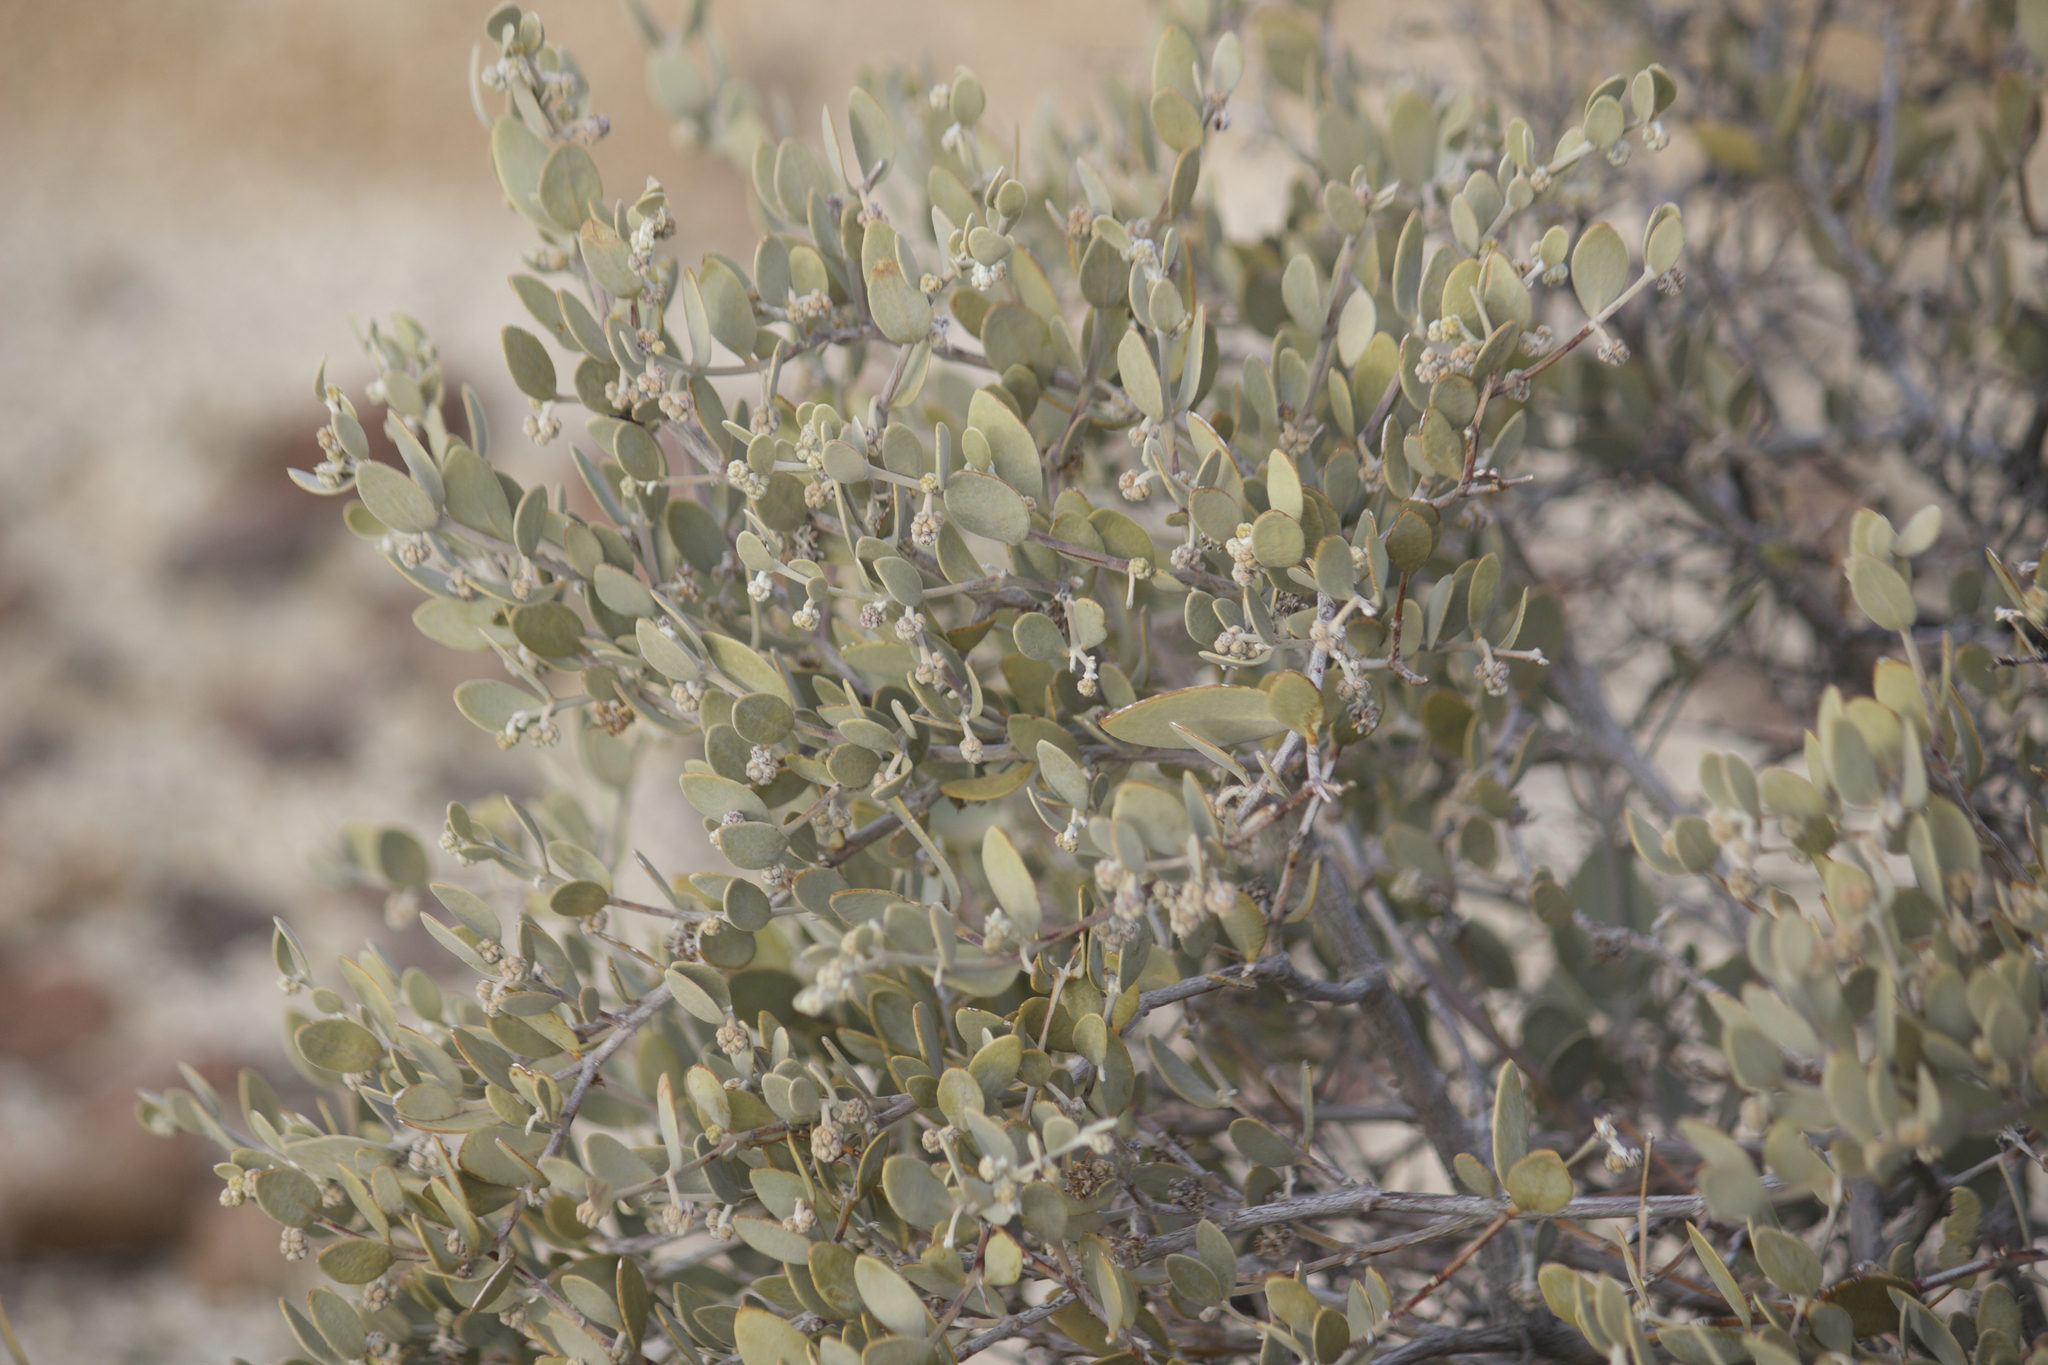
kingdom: Plantae
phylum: Tracheophyta
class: Magnoliopsida
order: Caryophyllales
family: Simmondsiaceae
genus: Simmondsia
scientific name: Simmondsia chinensis
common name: Jojoba
